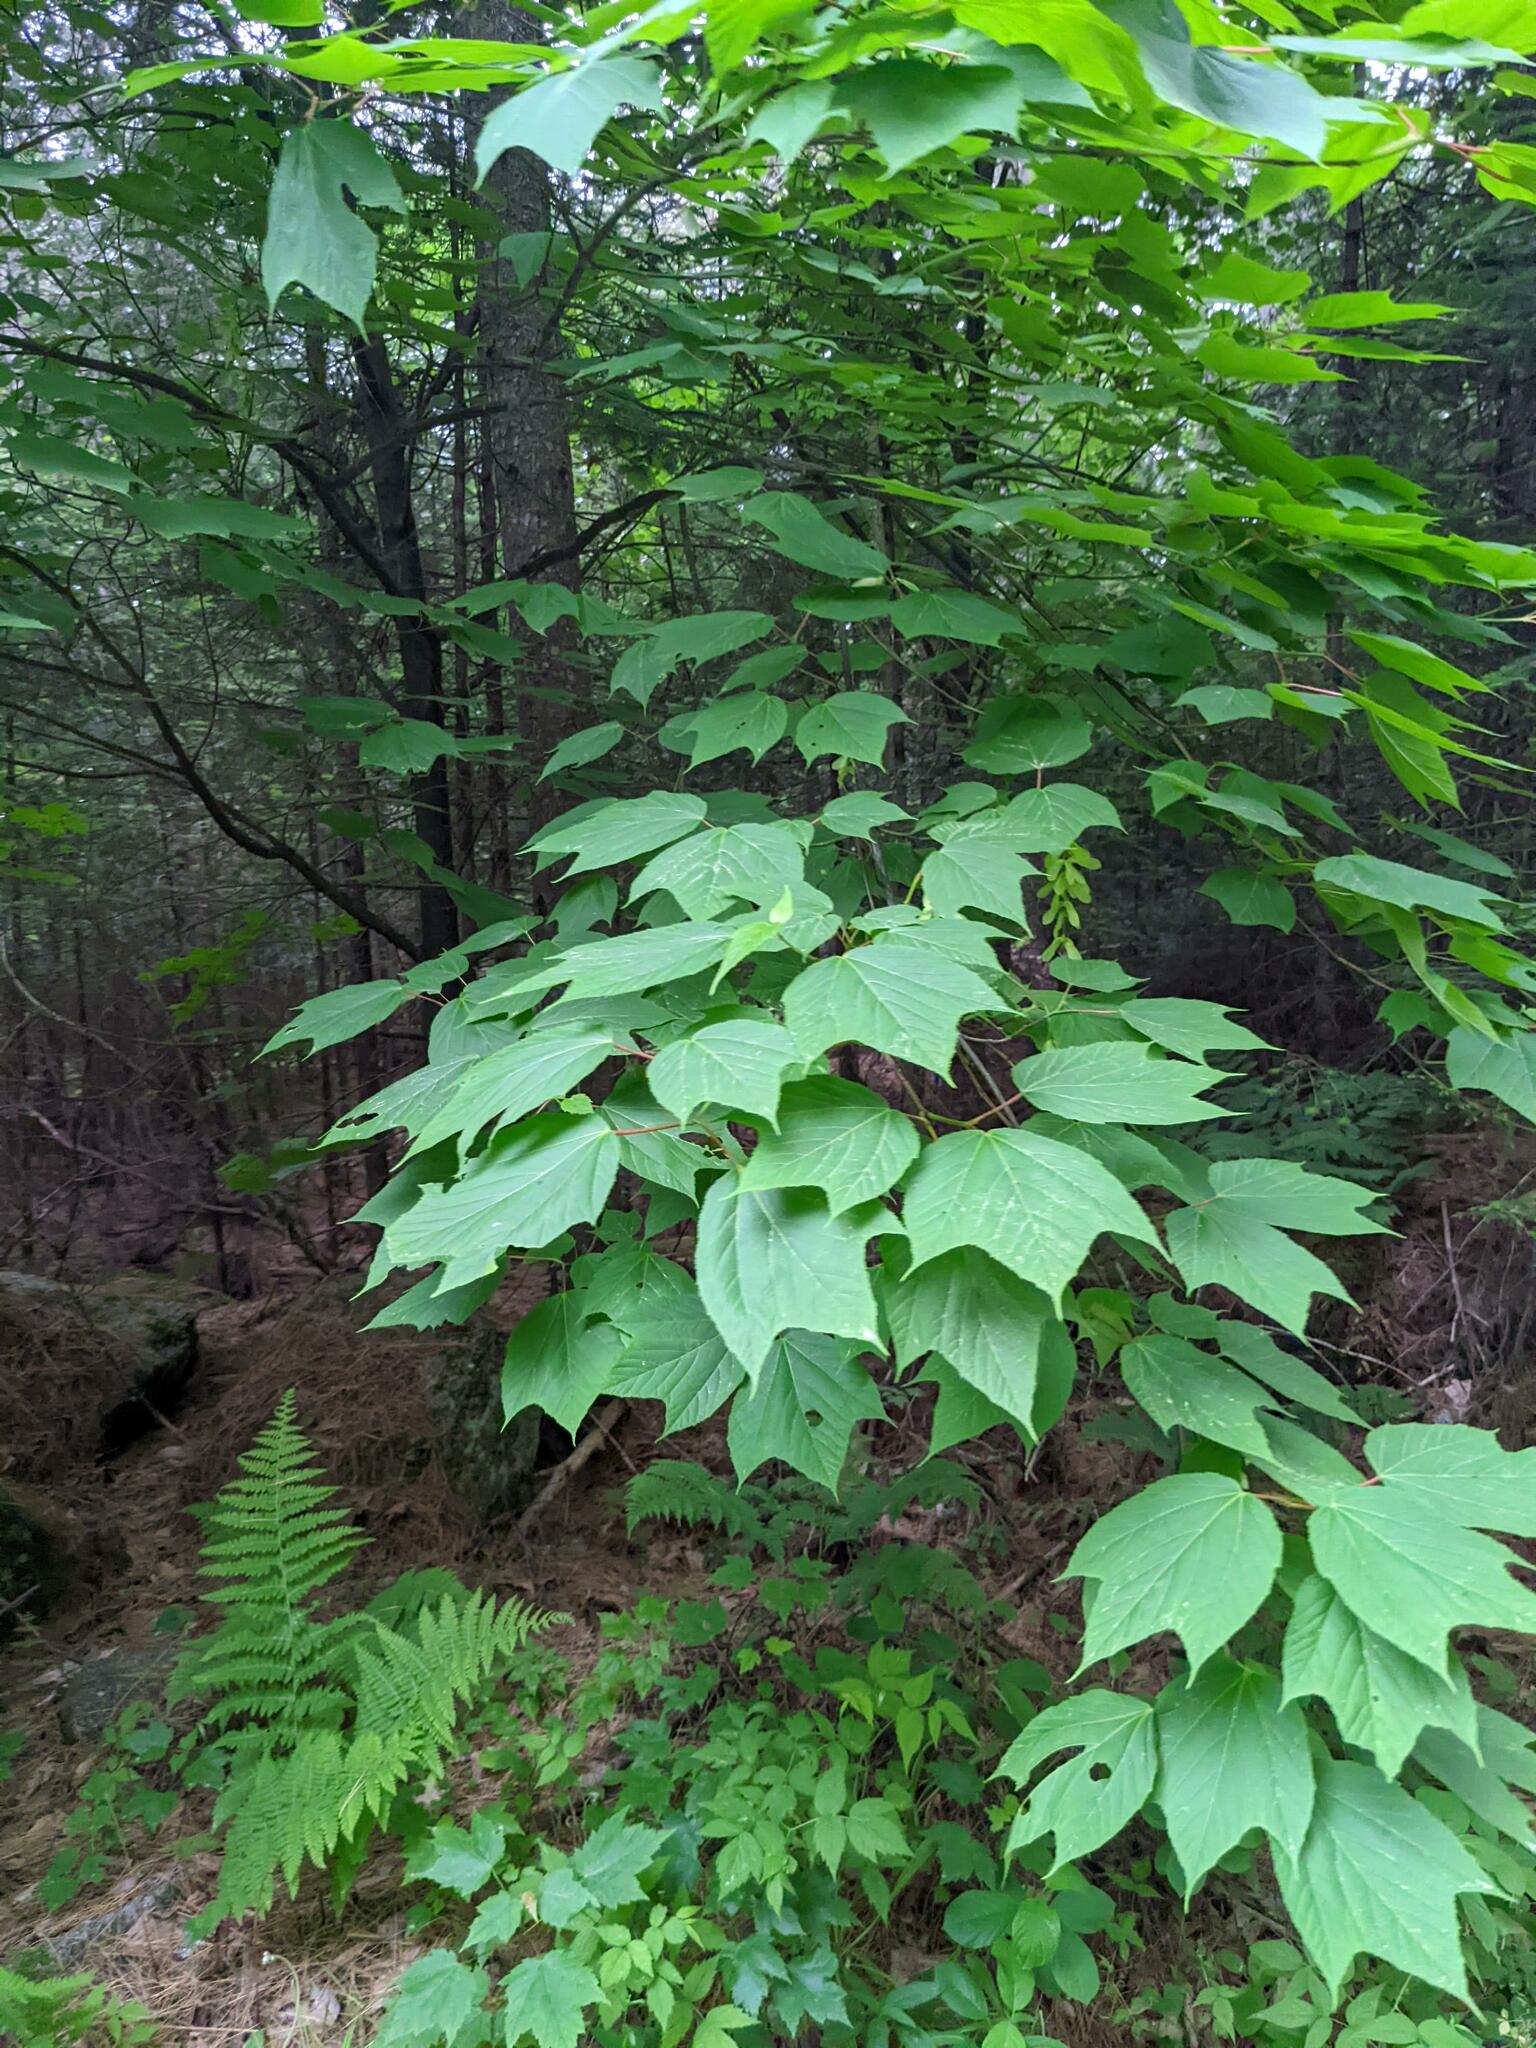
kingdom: Plantae
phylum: Tracheophyta
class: Magnoliopsida
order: Sapindales
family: Sapindaceae
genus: Acer
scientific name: Acer pensylvanicum
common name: Moosewood
